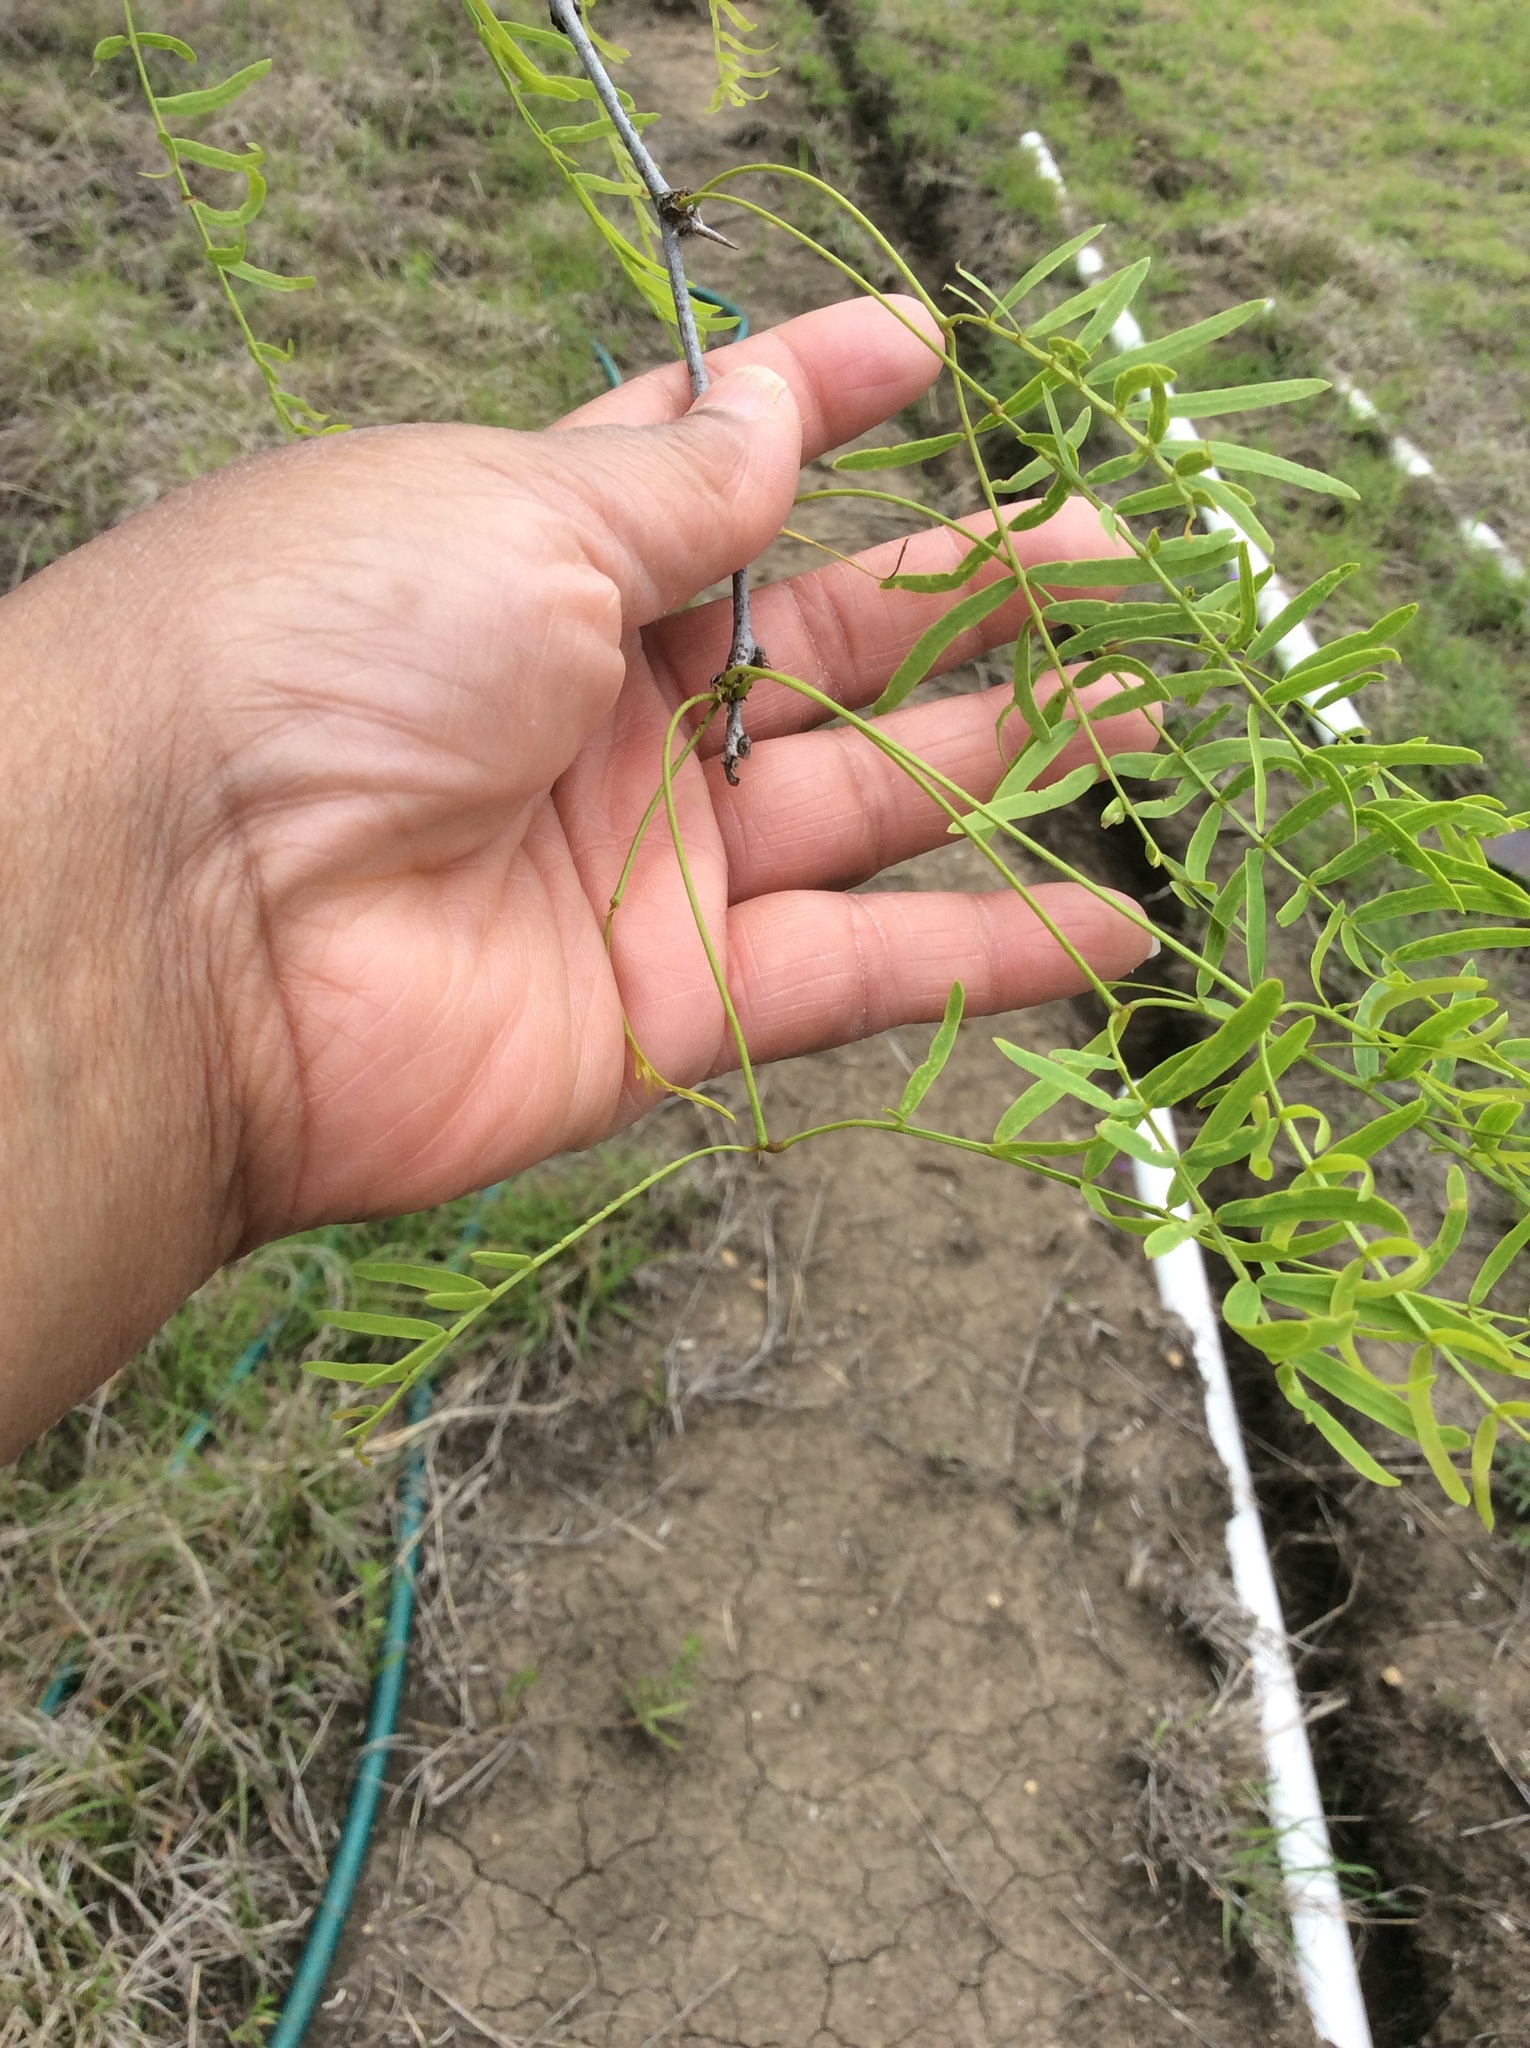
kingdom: Plantae
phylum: Tracheophyta
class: Magnoliopsida
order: Fabales
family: Fabaceae
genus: Prosopis
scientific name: Prosopis glandulosa
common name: Honey mesquite
